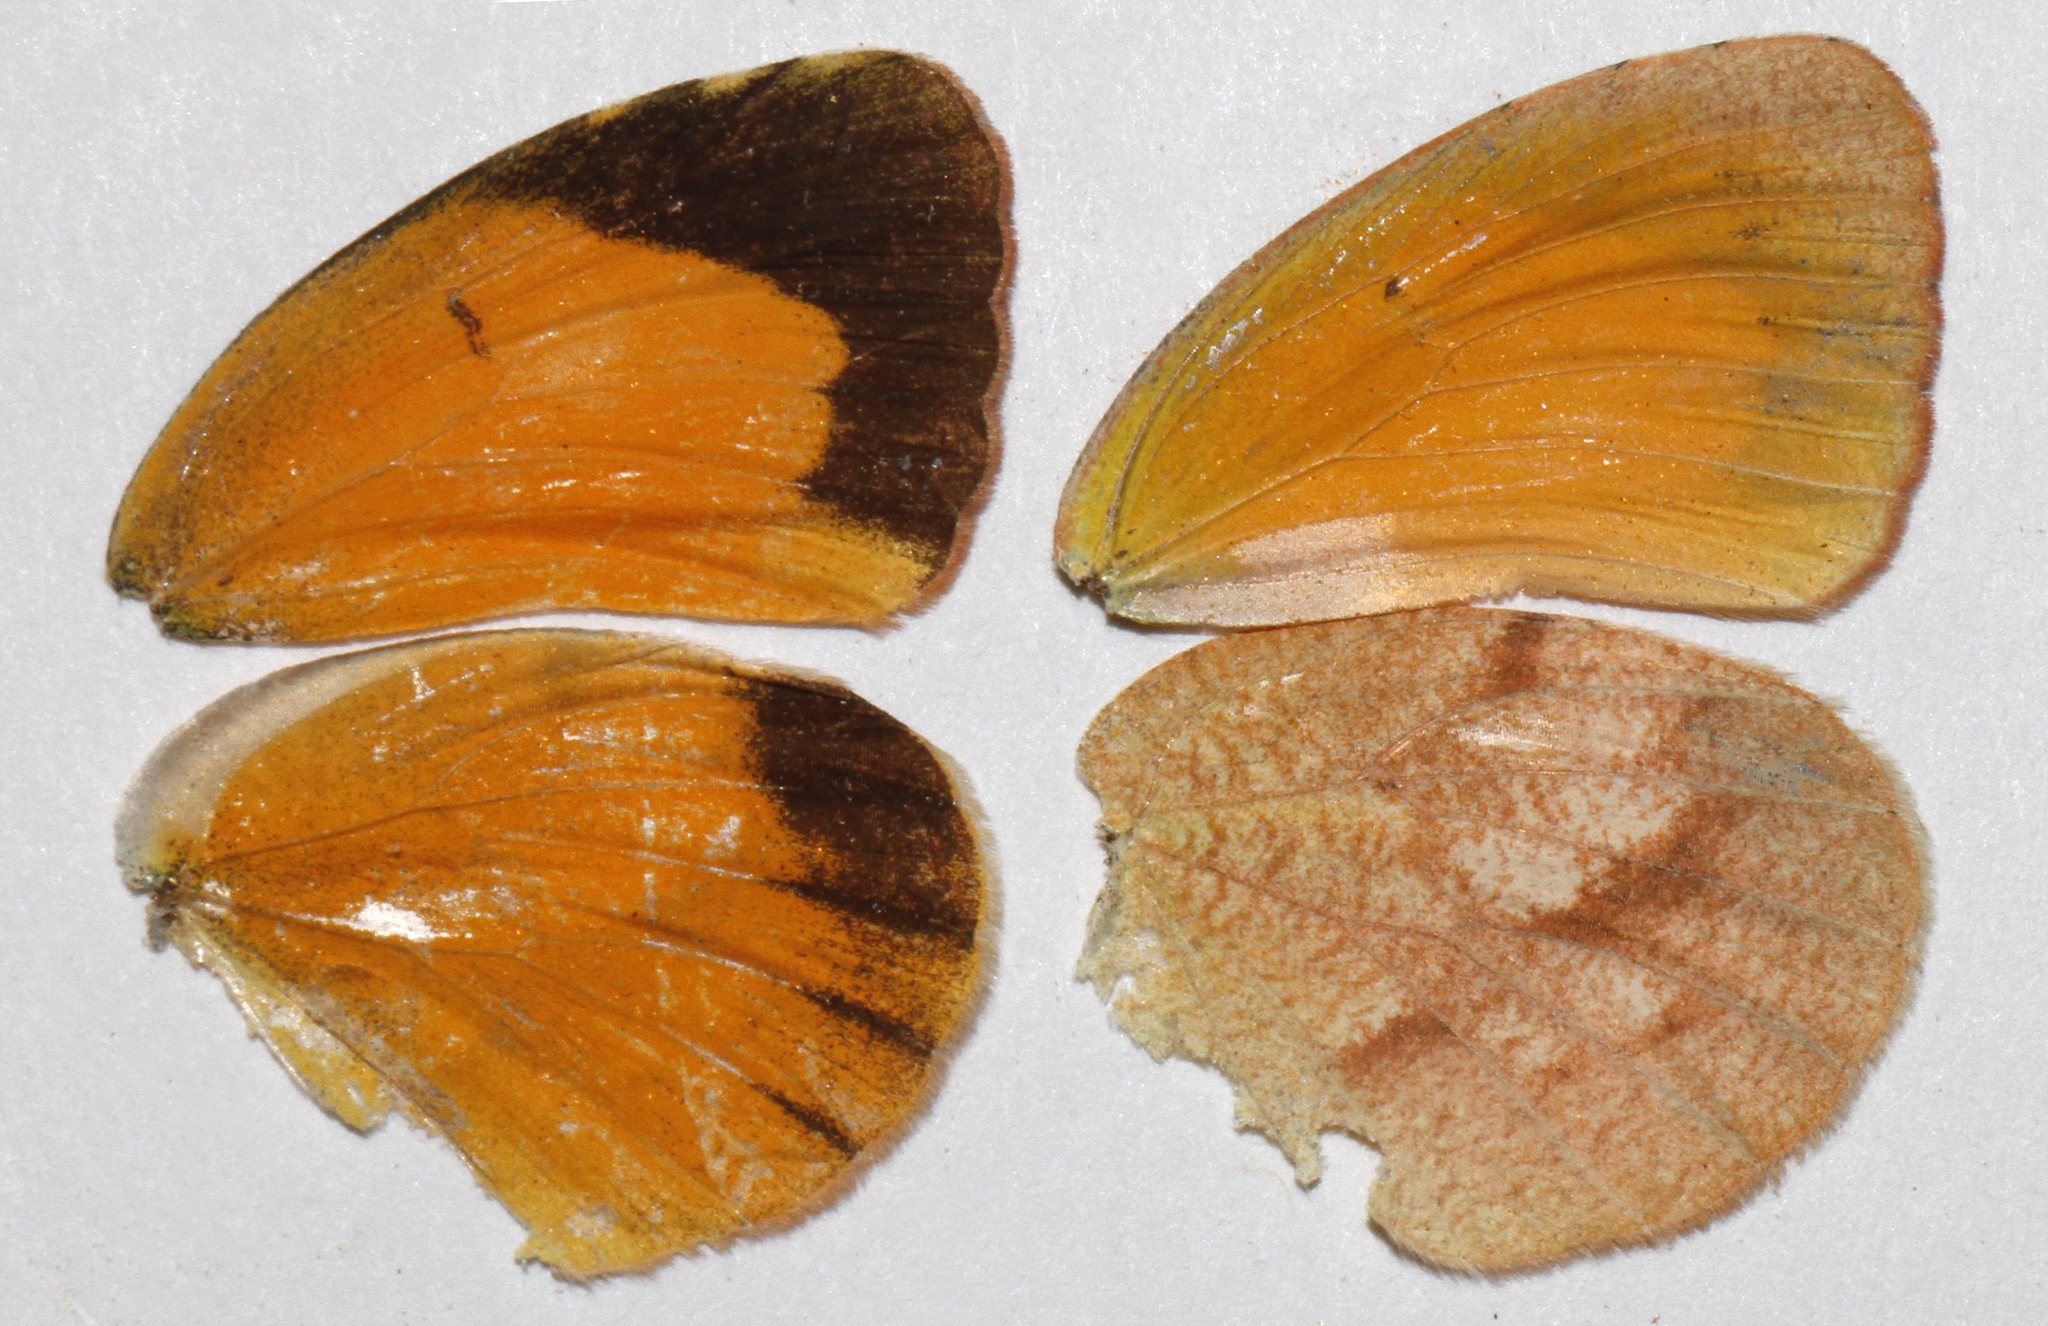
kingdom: Animalia
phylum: Arthropoda
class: Insecta
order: Lepidoptera
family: Pieridae
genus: Abaeis
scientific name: Abaeis nicippe
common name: Sleepy orange
